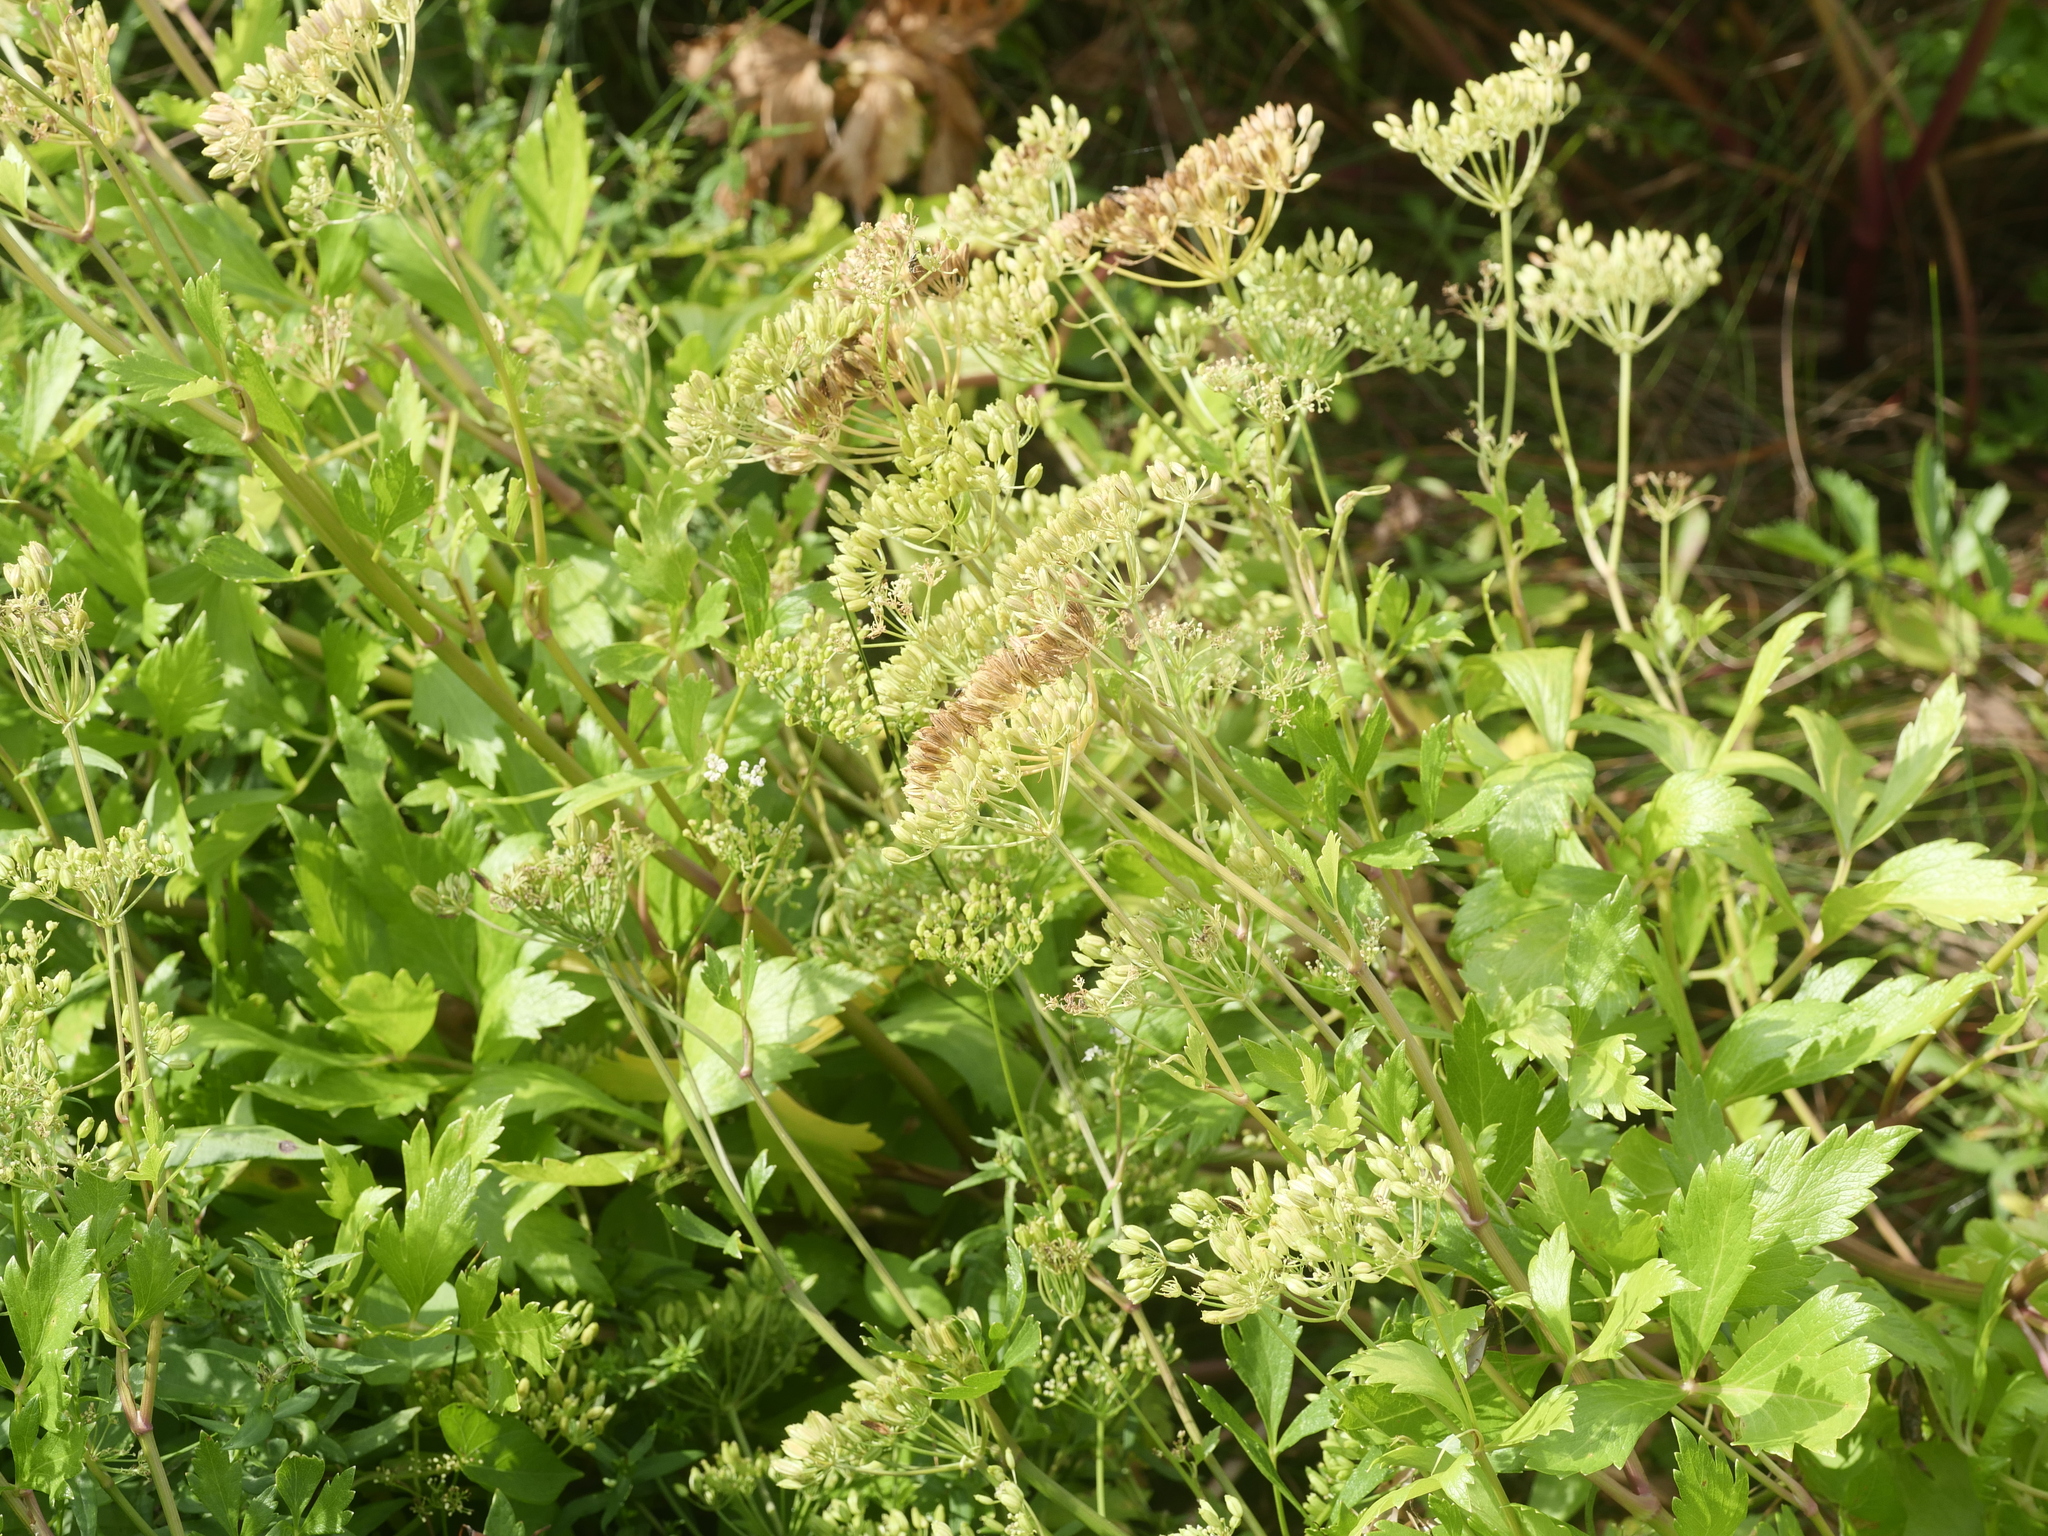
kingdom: Plantae
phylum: Tracheophyta
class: Magnoliopsida
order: Apiales
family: Apiaceae
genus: Ligusticum
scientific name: Ligusticum scothicum
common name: Beach lovage
